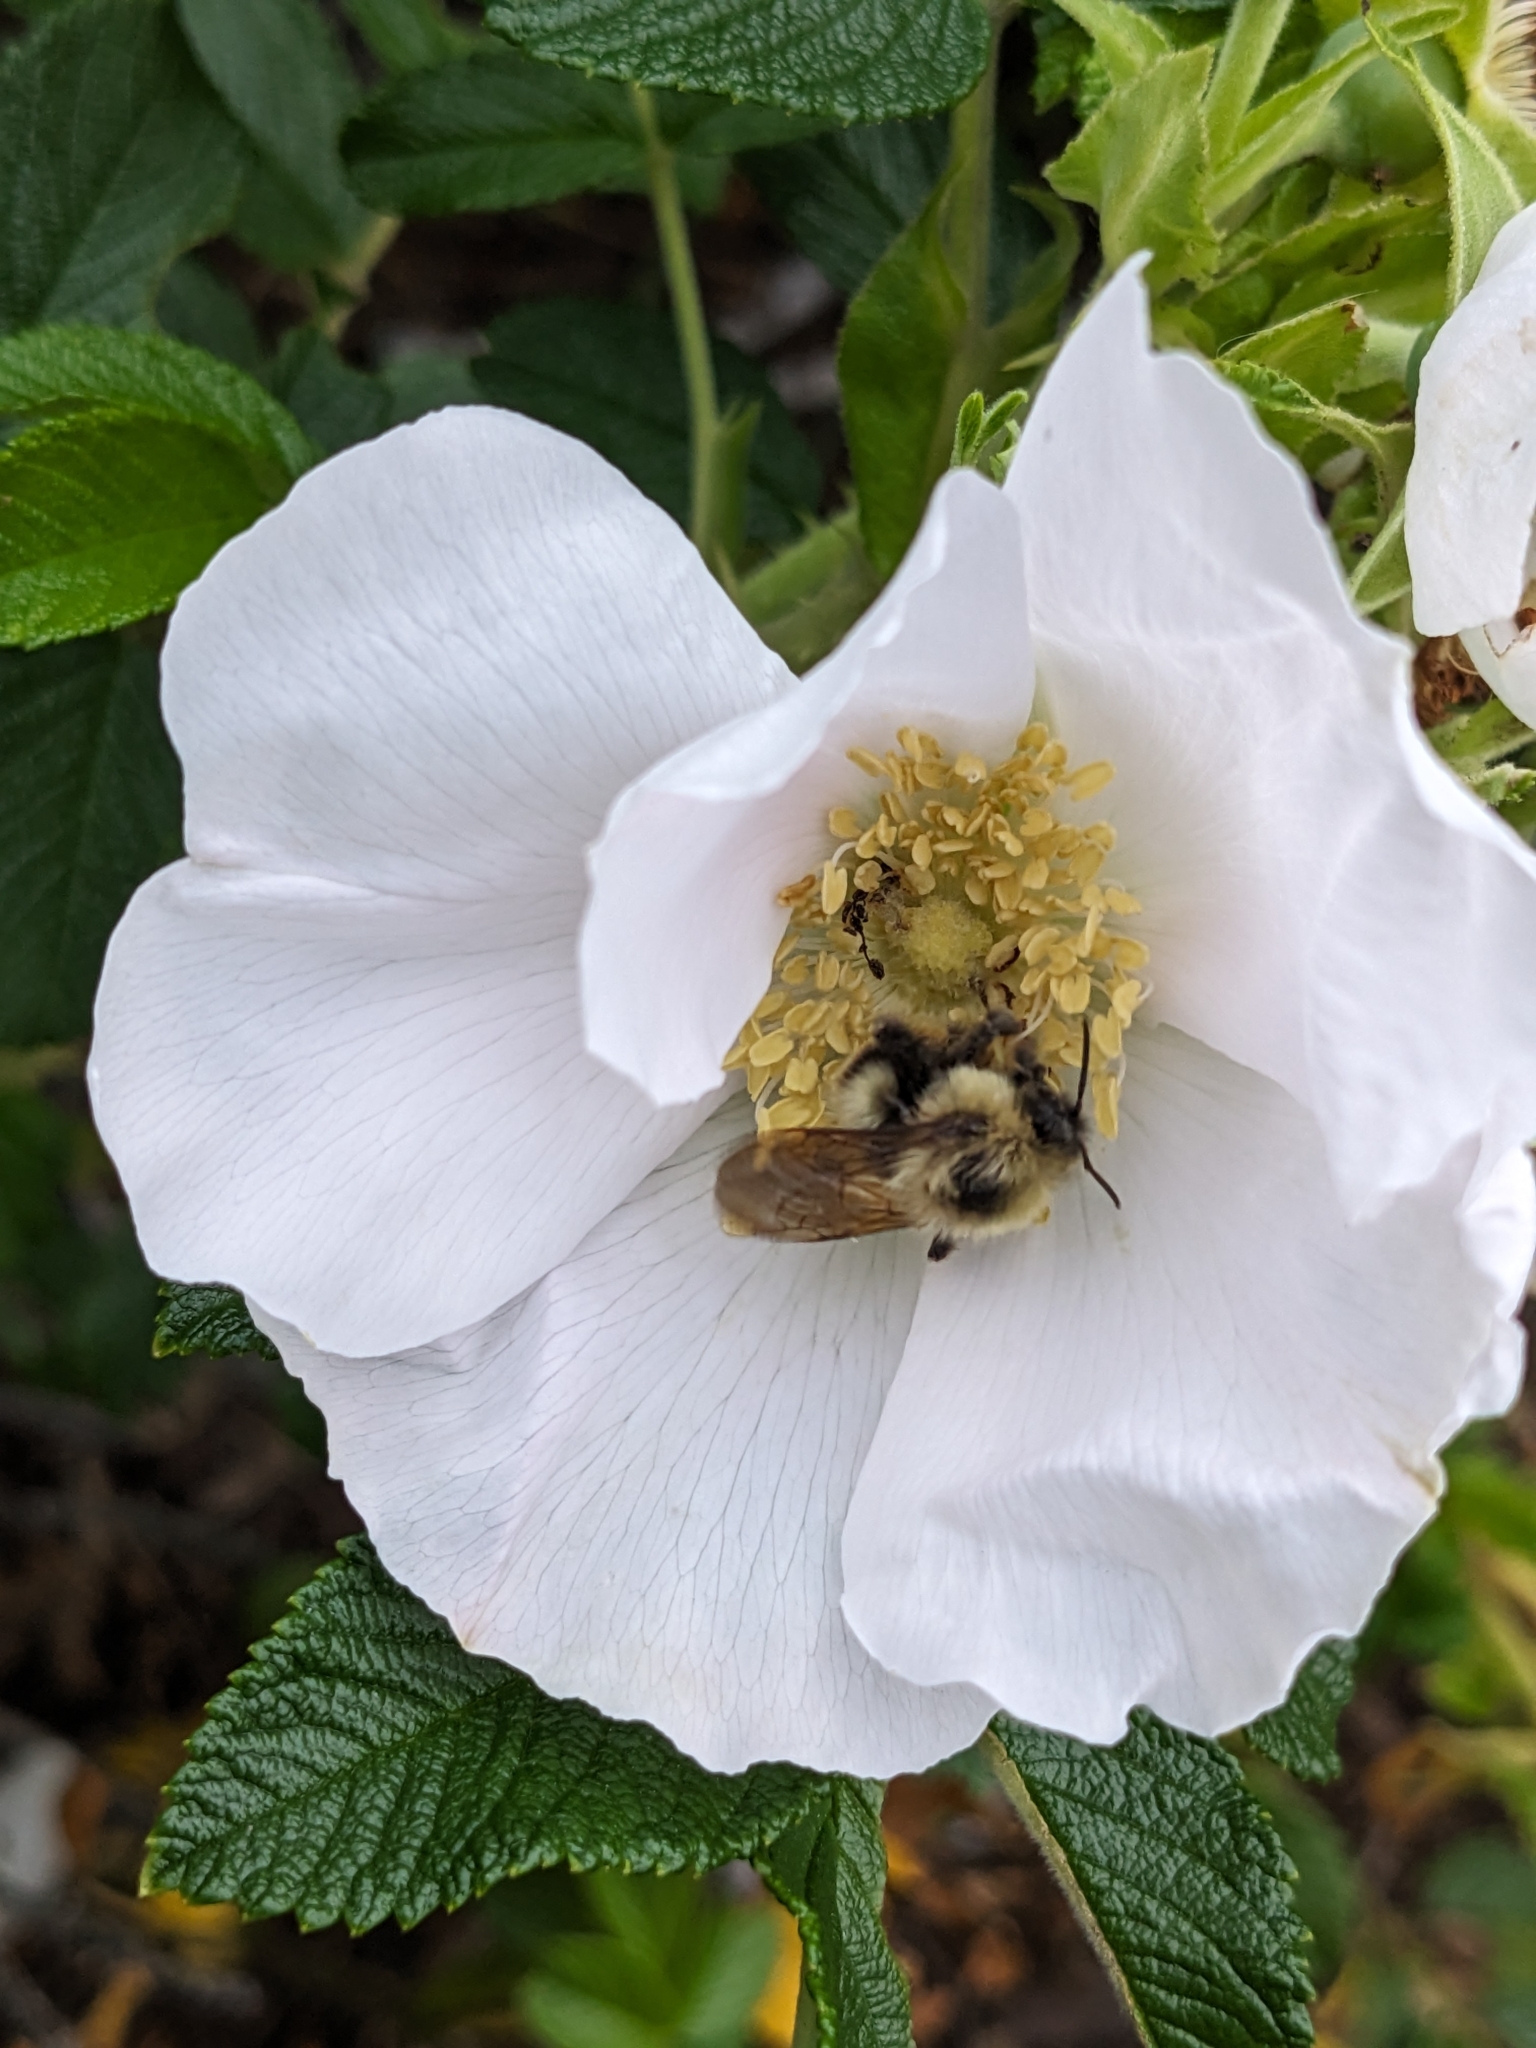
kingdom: Animalia
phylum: Arthropoda
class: Insecta
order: Hymenoptera
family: Apidae
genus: Bombus
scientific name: Bombus bimaculatus
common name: Two-spotted bumble bee
